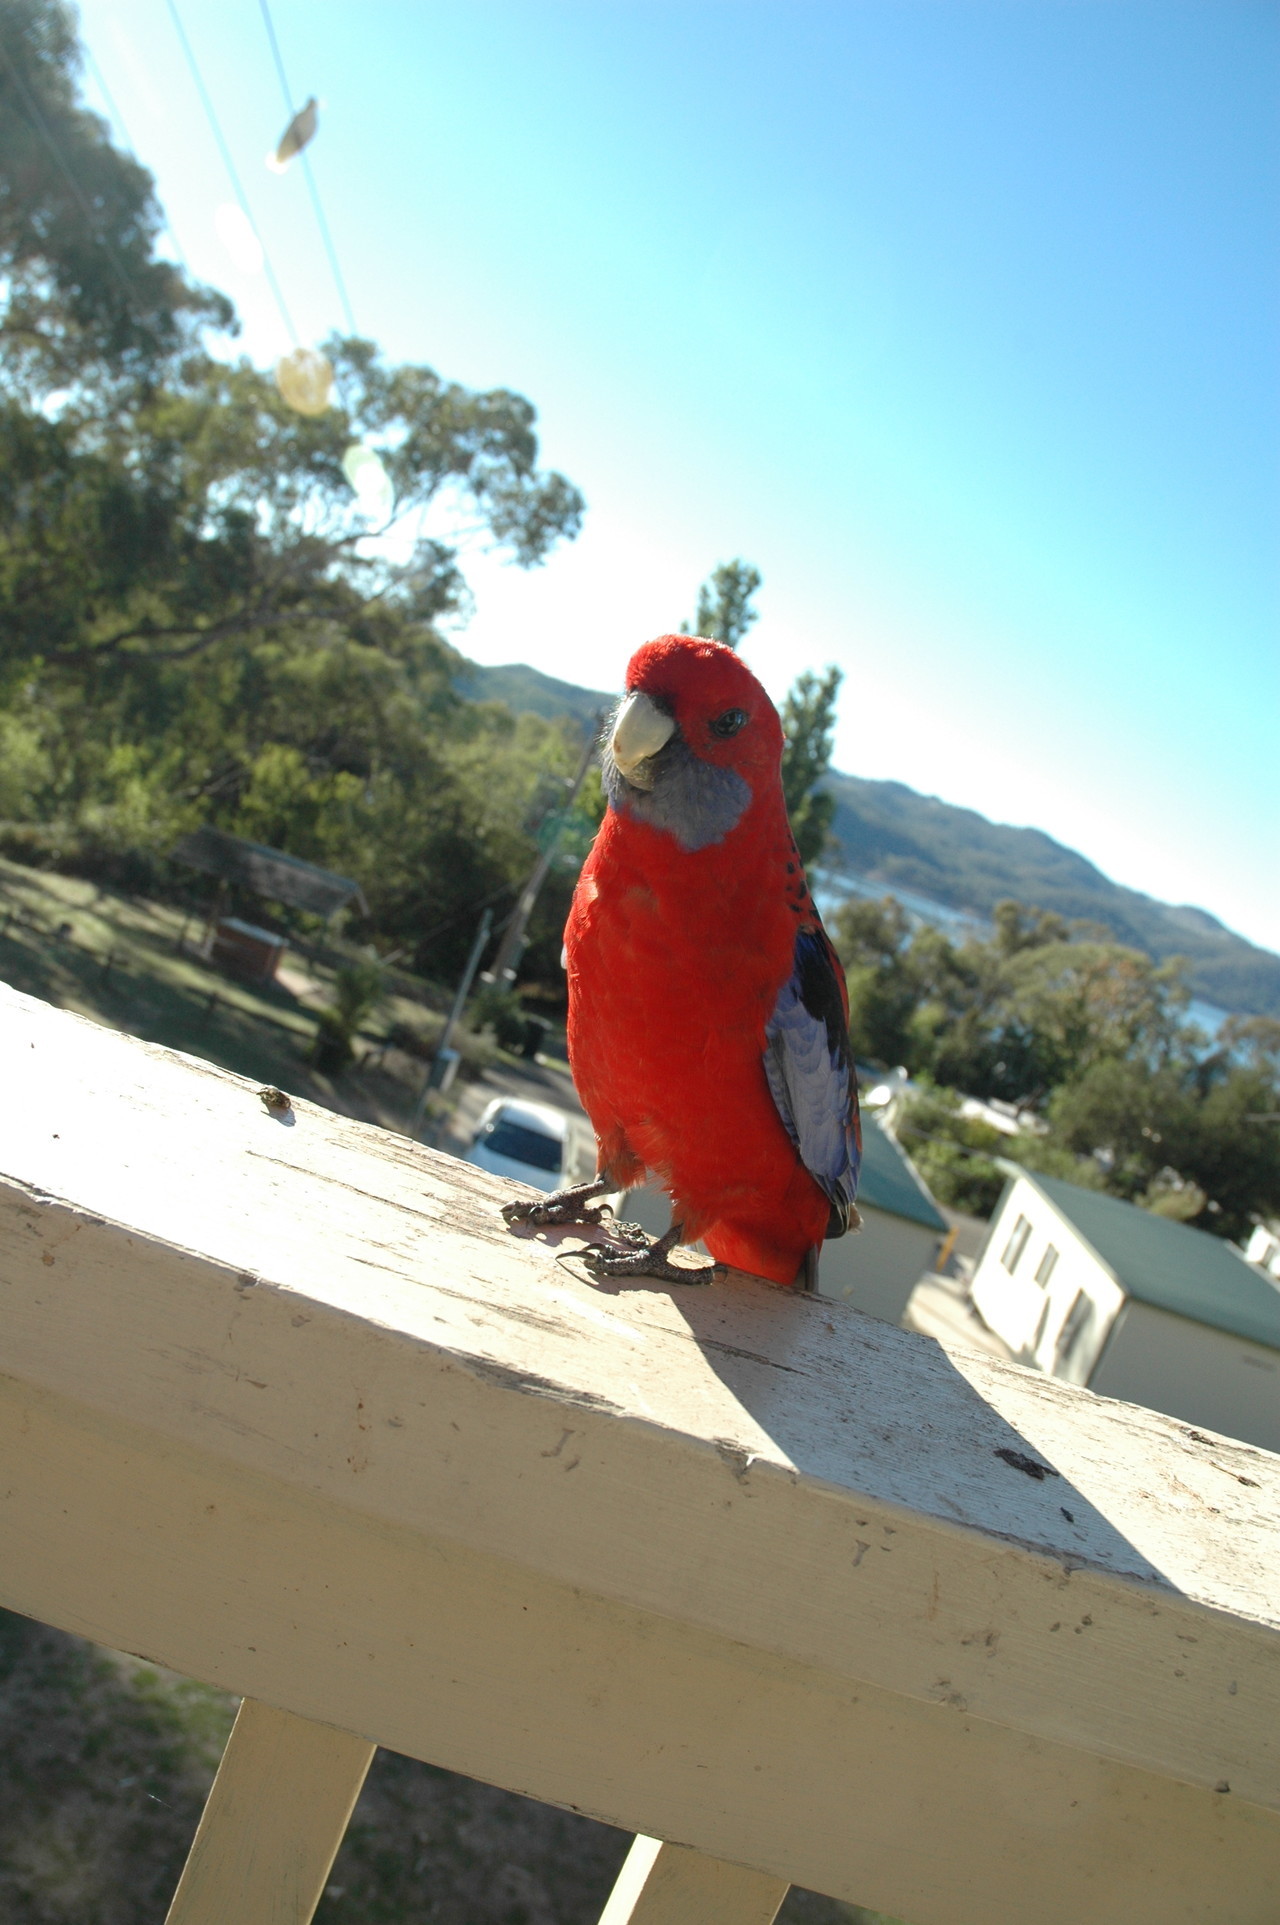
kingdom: Animalia
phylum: Chordata
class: Aves
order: Psittaciformes
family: Psittacidae
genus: Platycercus
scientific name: Platycercus elegans
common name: Crimson rosella
